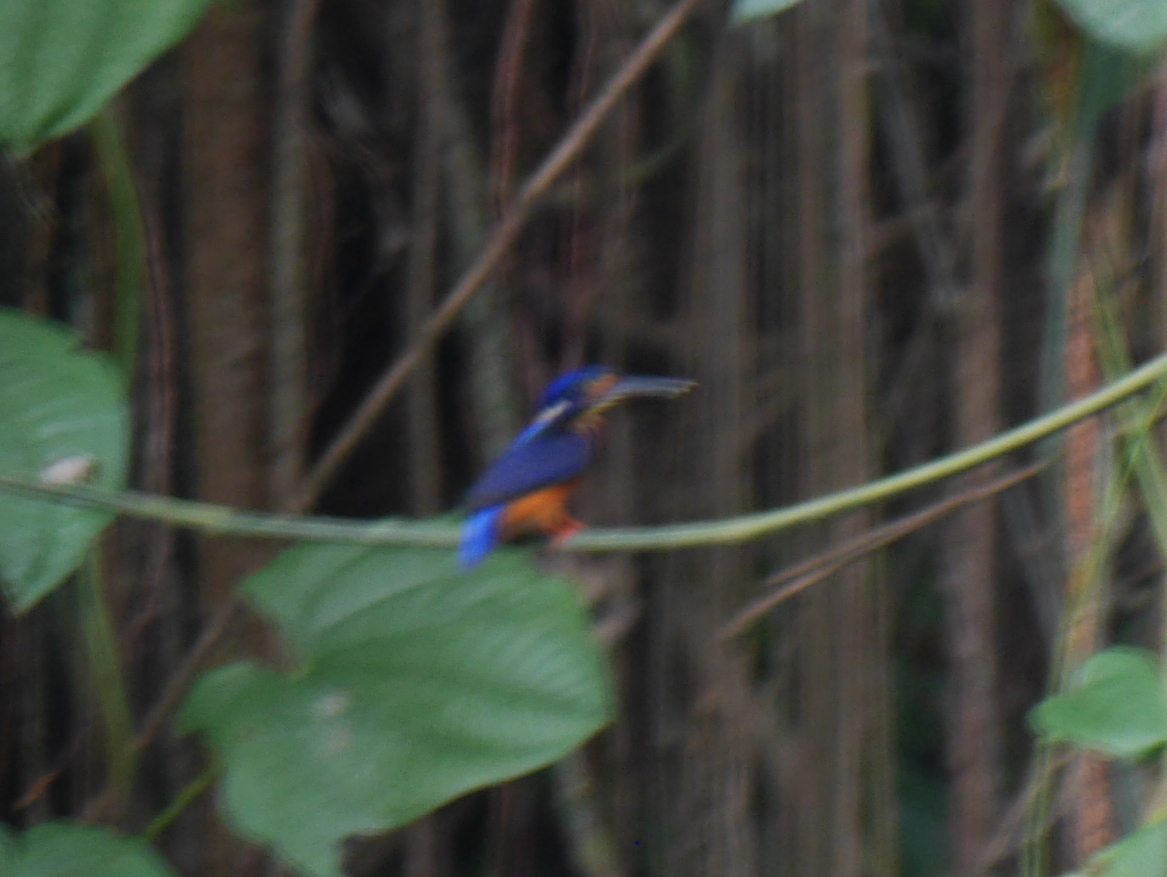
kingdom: Animalia
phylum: Chordata
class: Aves
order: Coraciiformes
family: Alcedinidae
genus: Alcedo
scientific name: Alcedo meninting
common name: Blue-eared kingfisher
